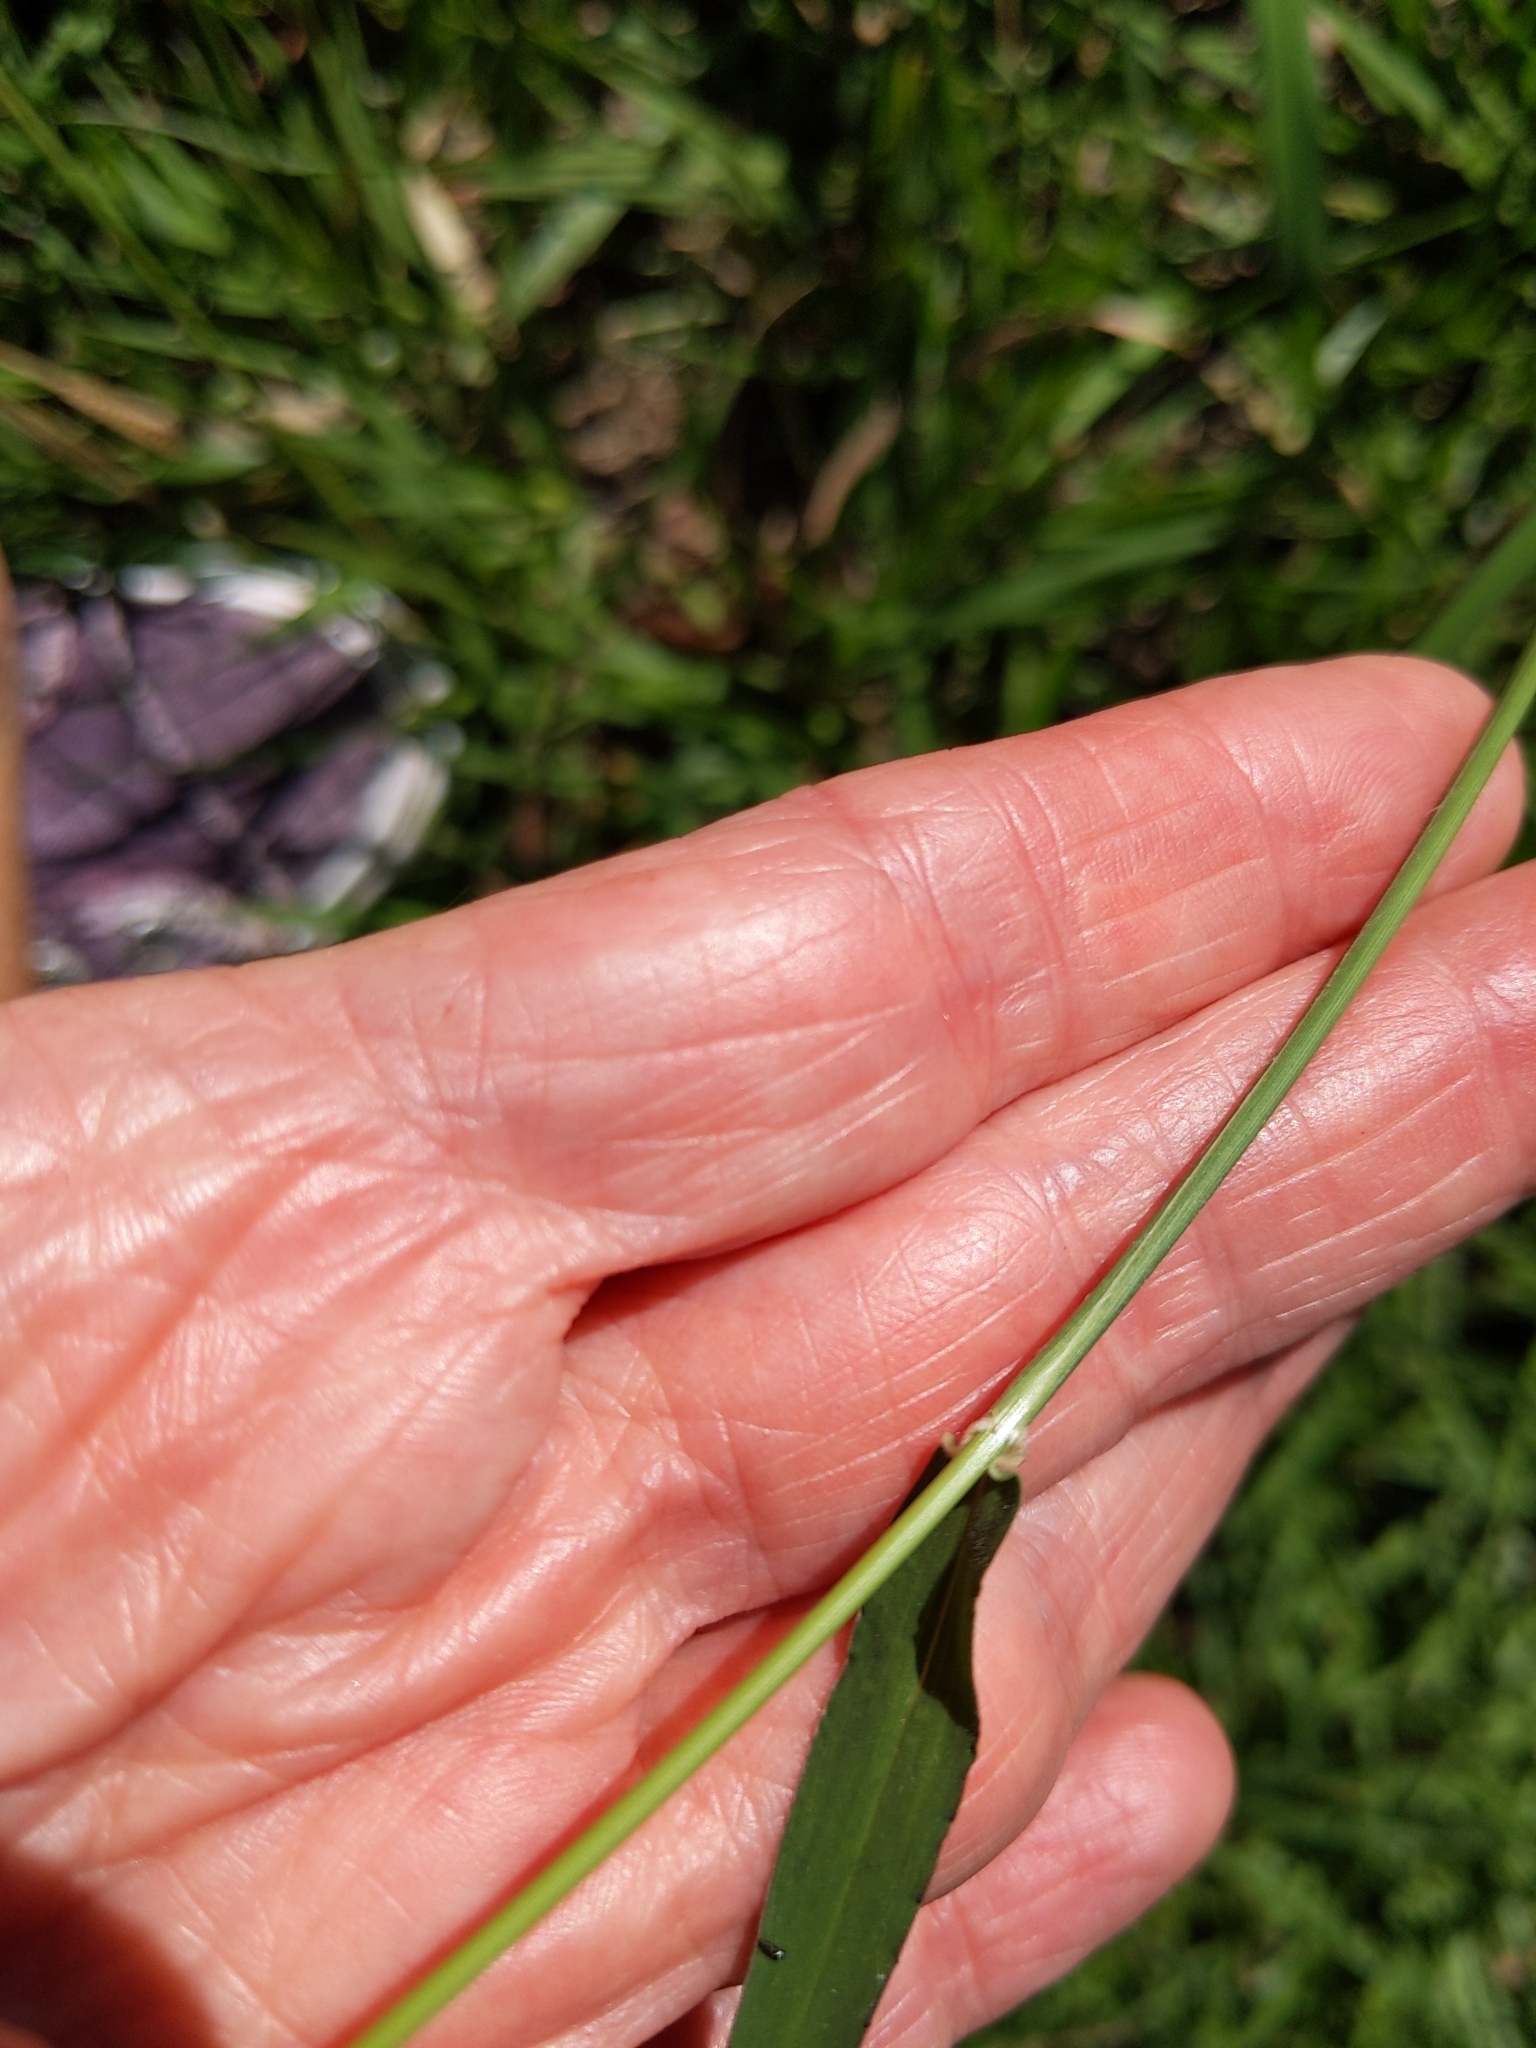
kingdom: Plantae
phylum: Tracheophyta
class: Liliopsida
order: Poales
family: Poaceae
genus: Megathyrsus
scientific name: Megathyrsus maximus
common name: Guineagrass
